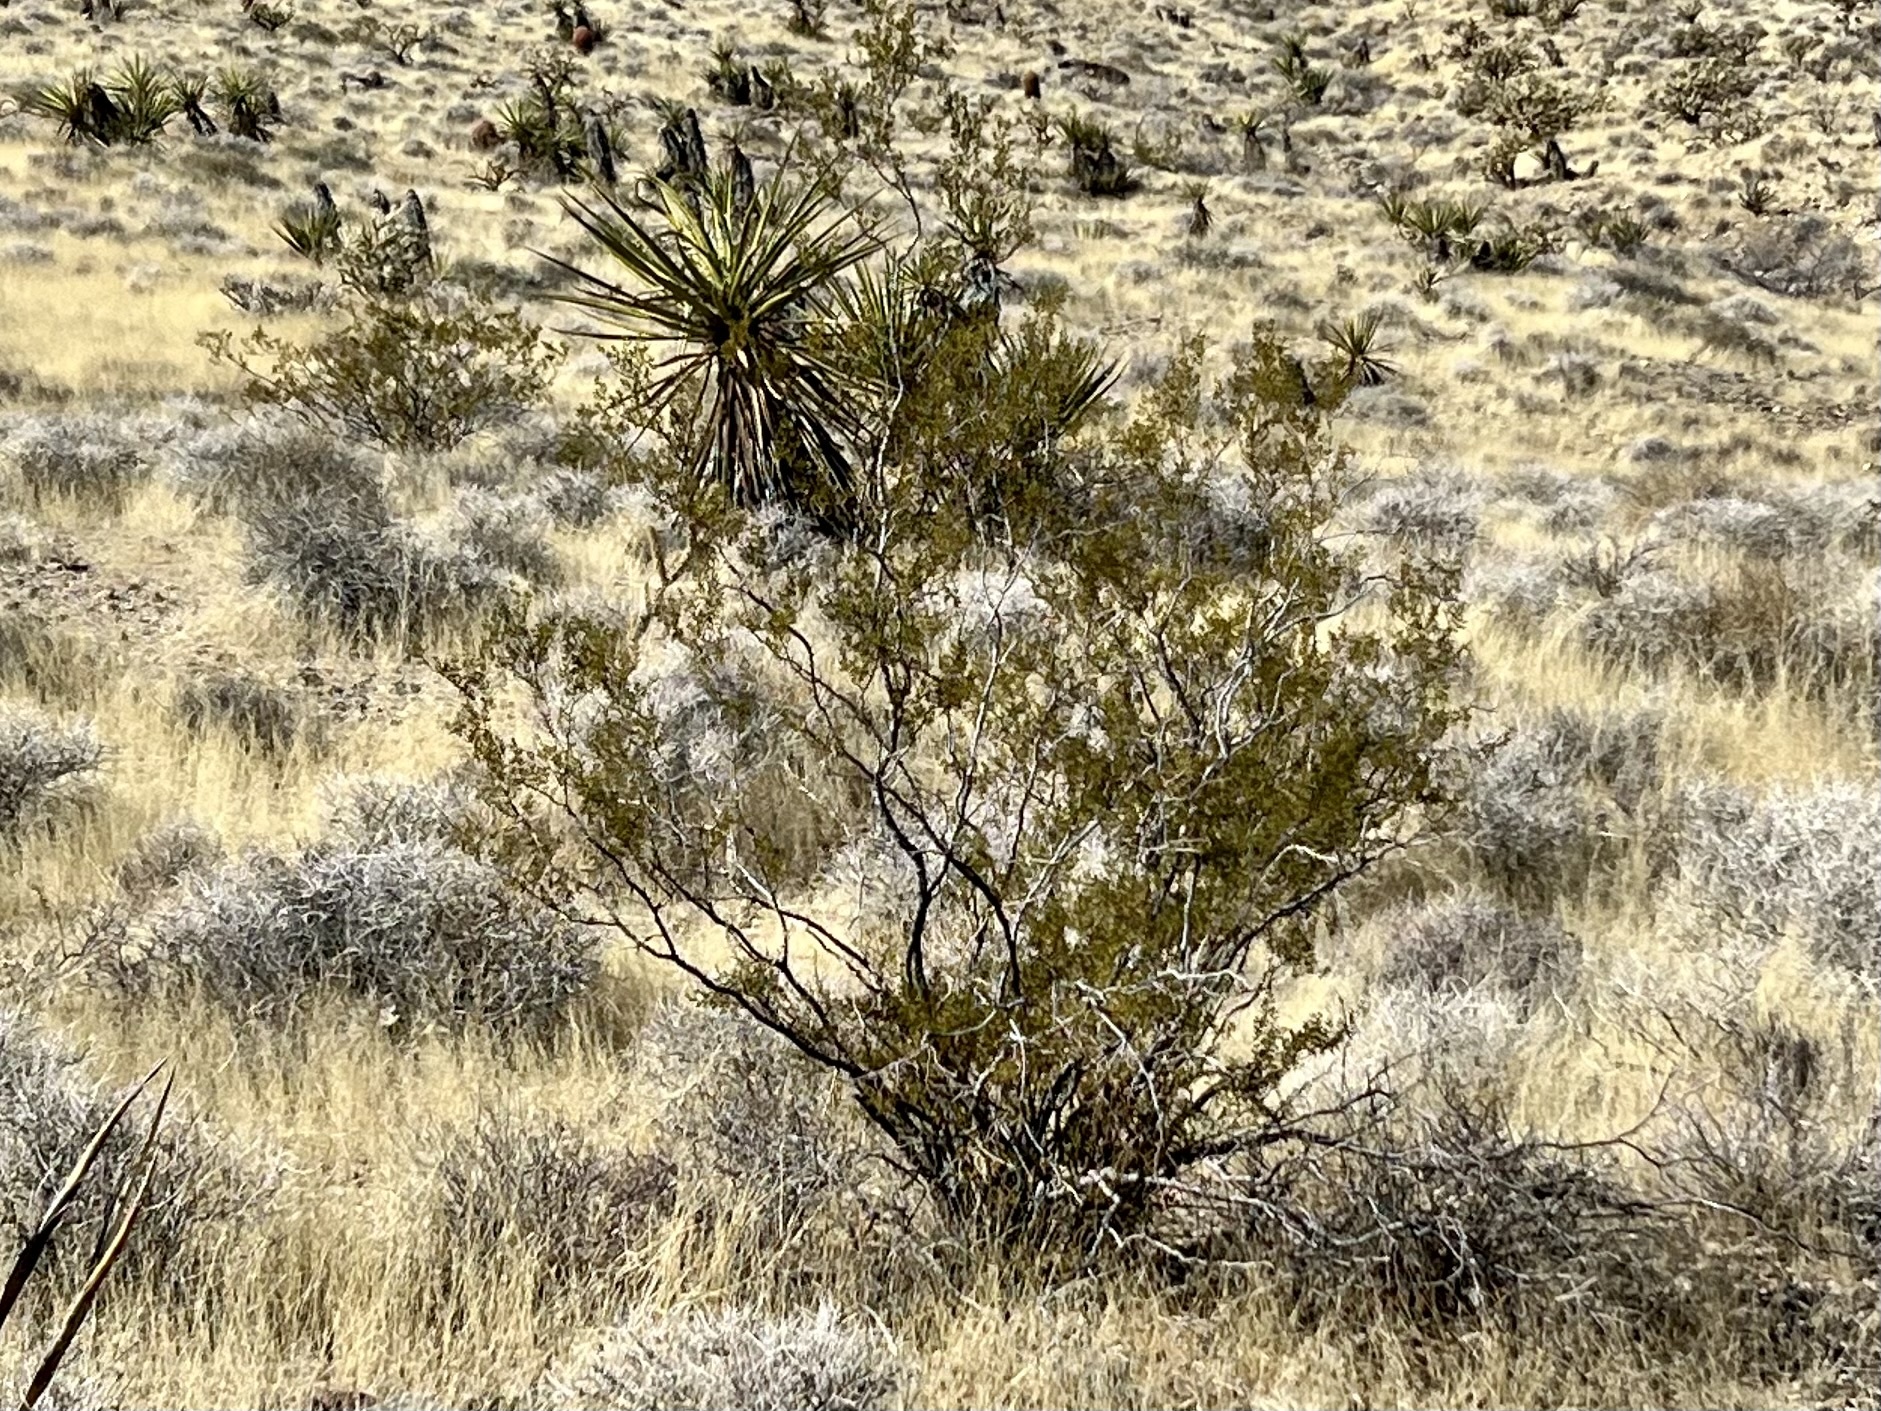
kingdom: Plantae
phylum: Tracheophyta
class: Magnoliopsida
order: Zygophyllales
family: Zygophyllaceae
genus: Larrea
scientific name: Larrea tridentata
